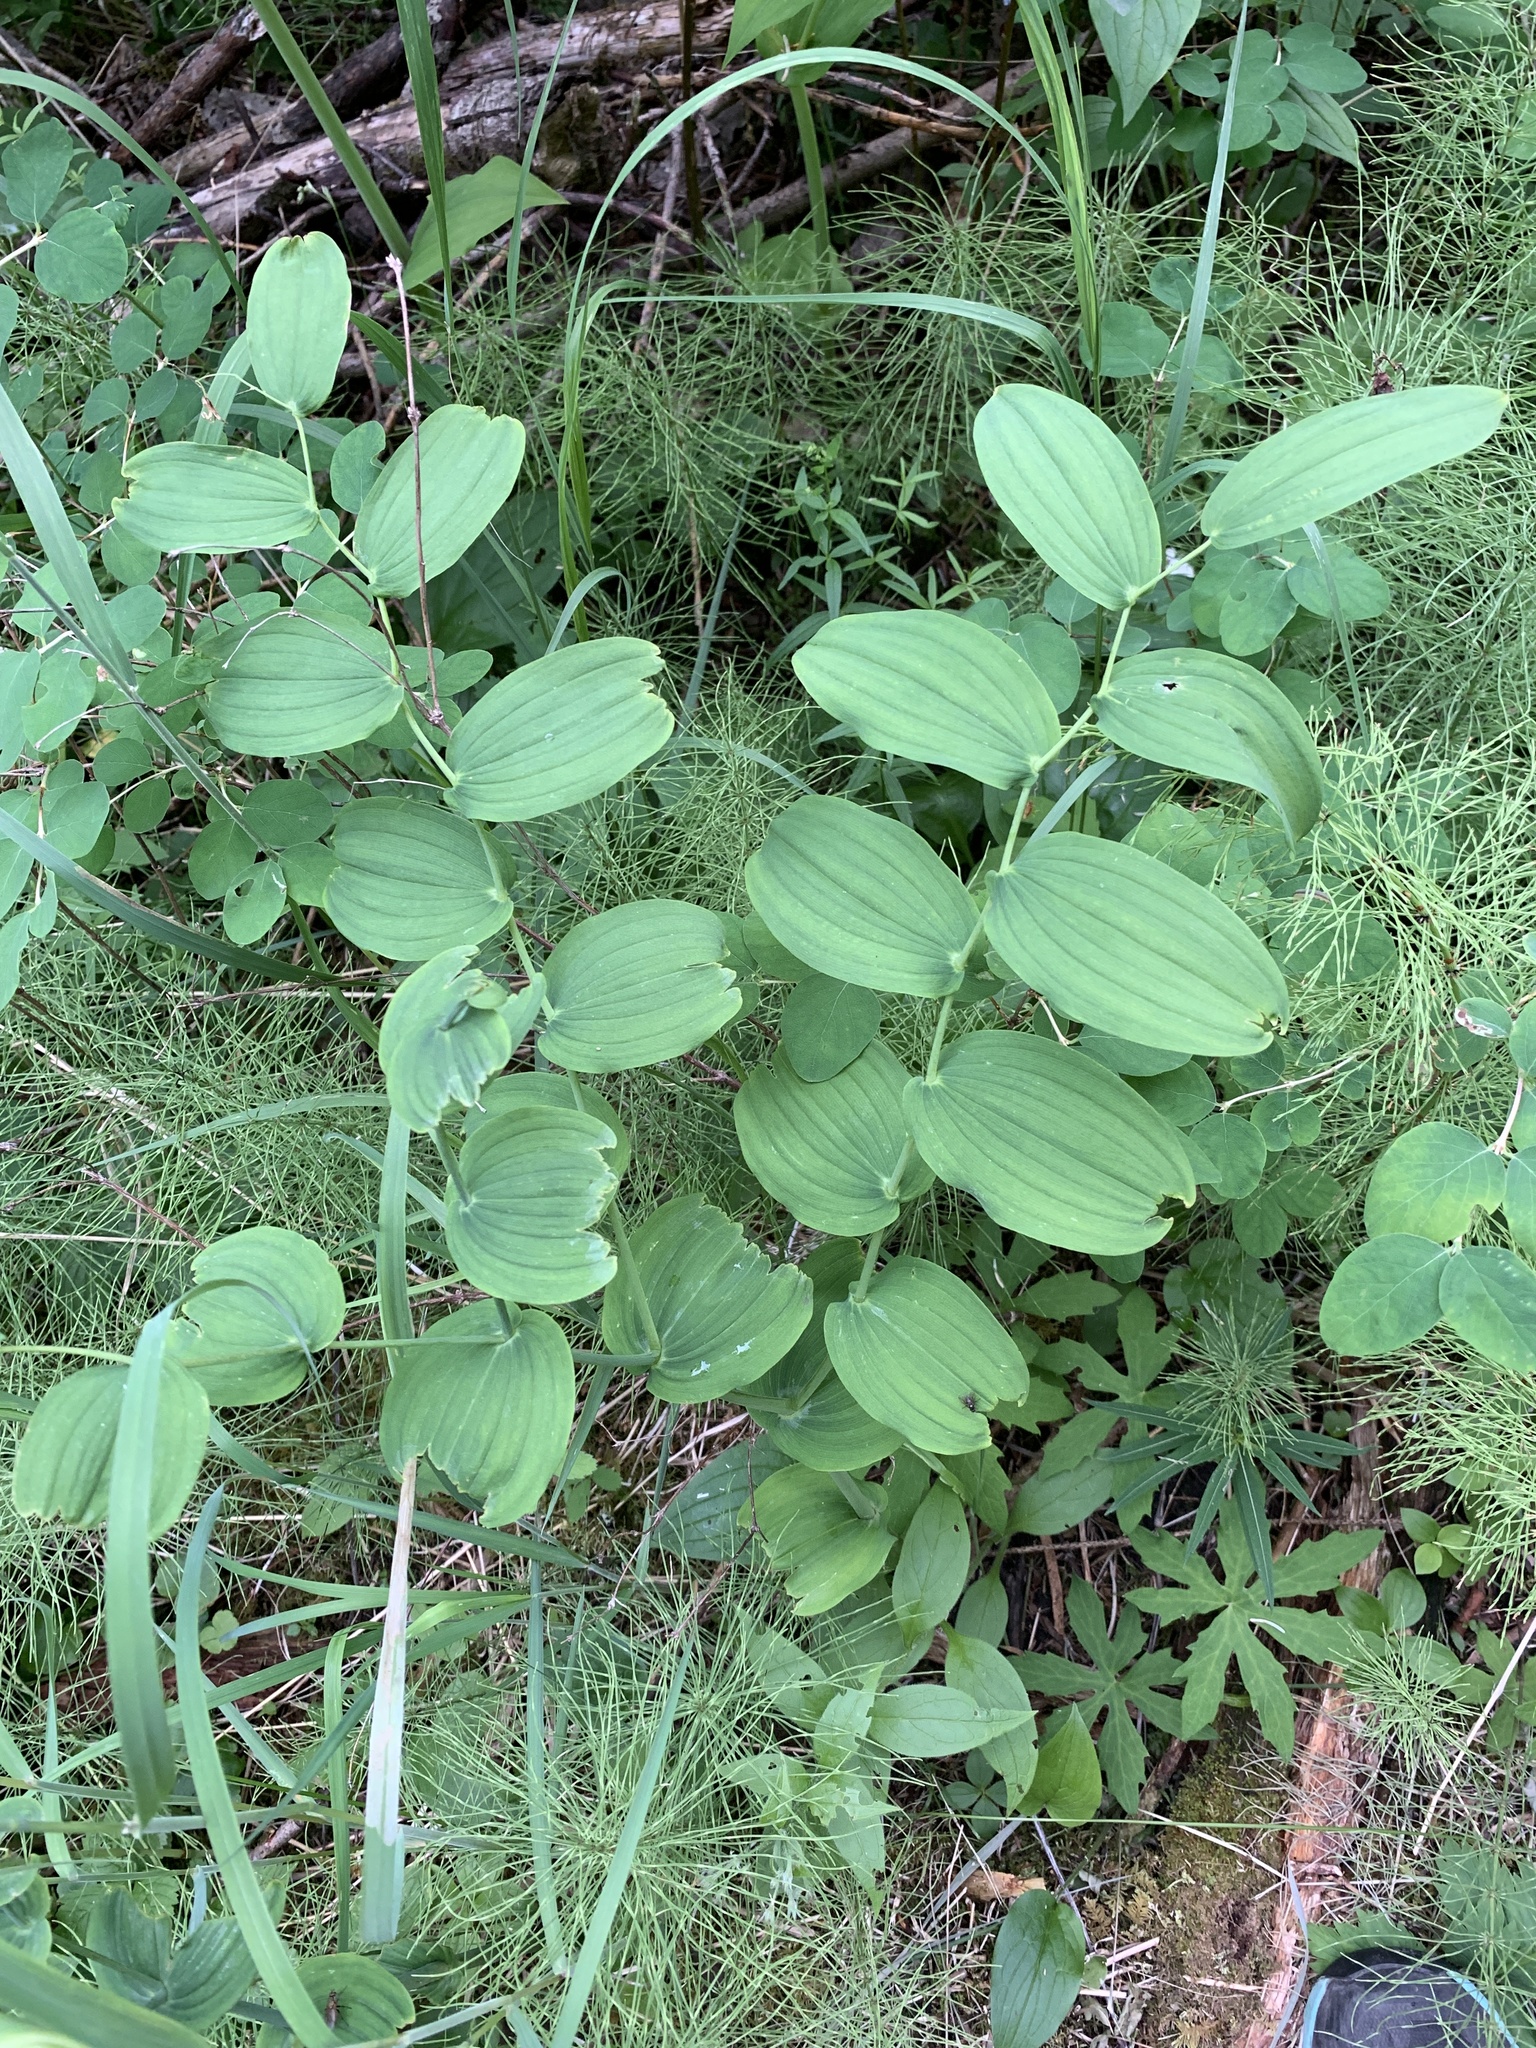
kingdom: Plantae
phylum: Tracheophyta
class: Liliopsida
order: Liliales
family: Liliaceae
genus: Streptopus
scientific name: Streptopus amplexifolius
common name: Clasp twisted stalk
